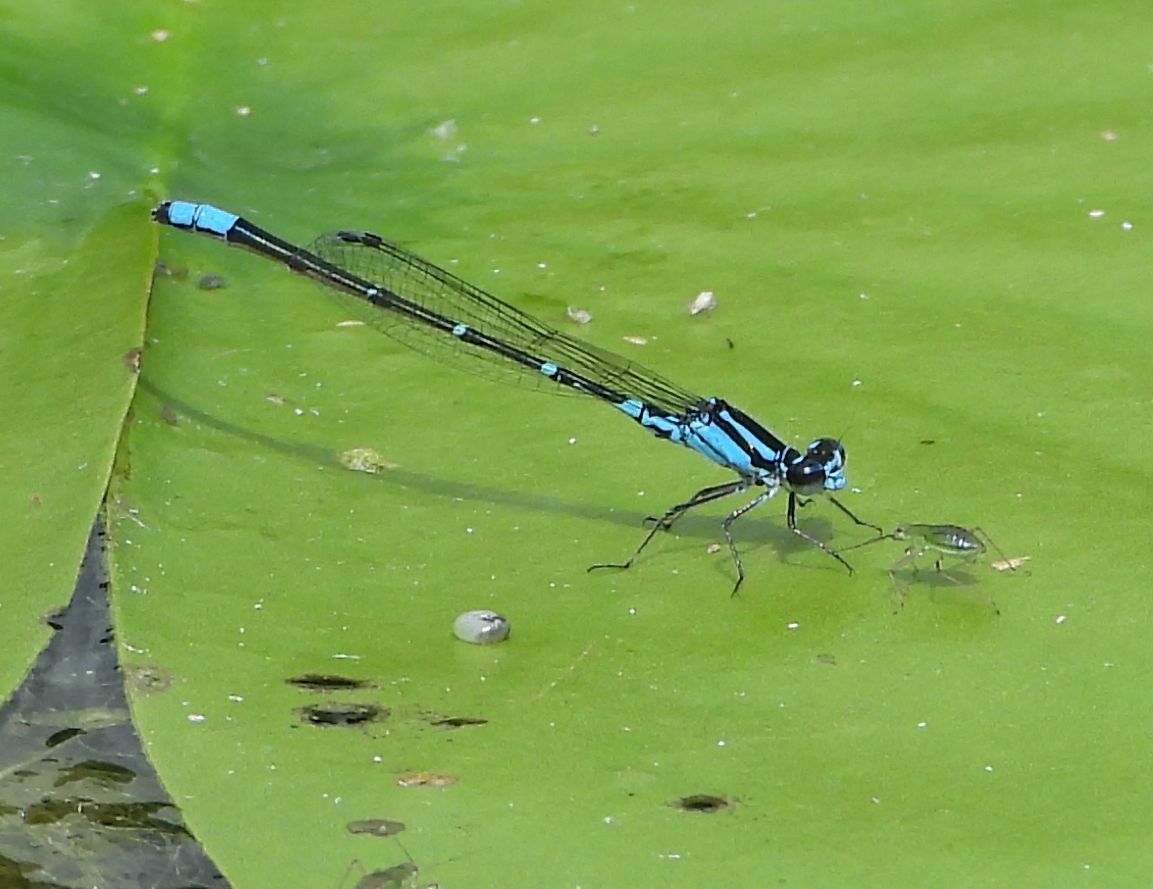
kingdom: Animalia
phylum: Arthropoda
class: Insecta
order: Odonata
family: Coenagrionidae
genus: Enallagma
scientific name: Enallagma geminatum
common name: Skimming bluet
